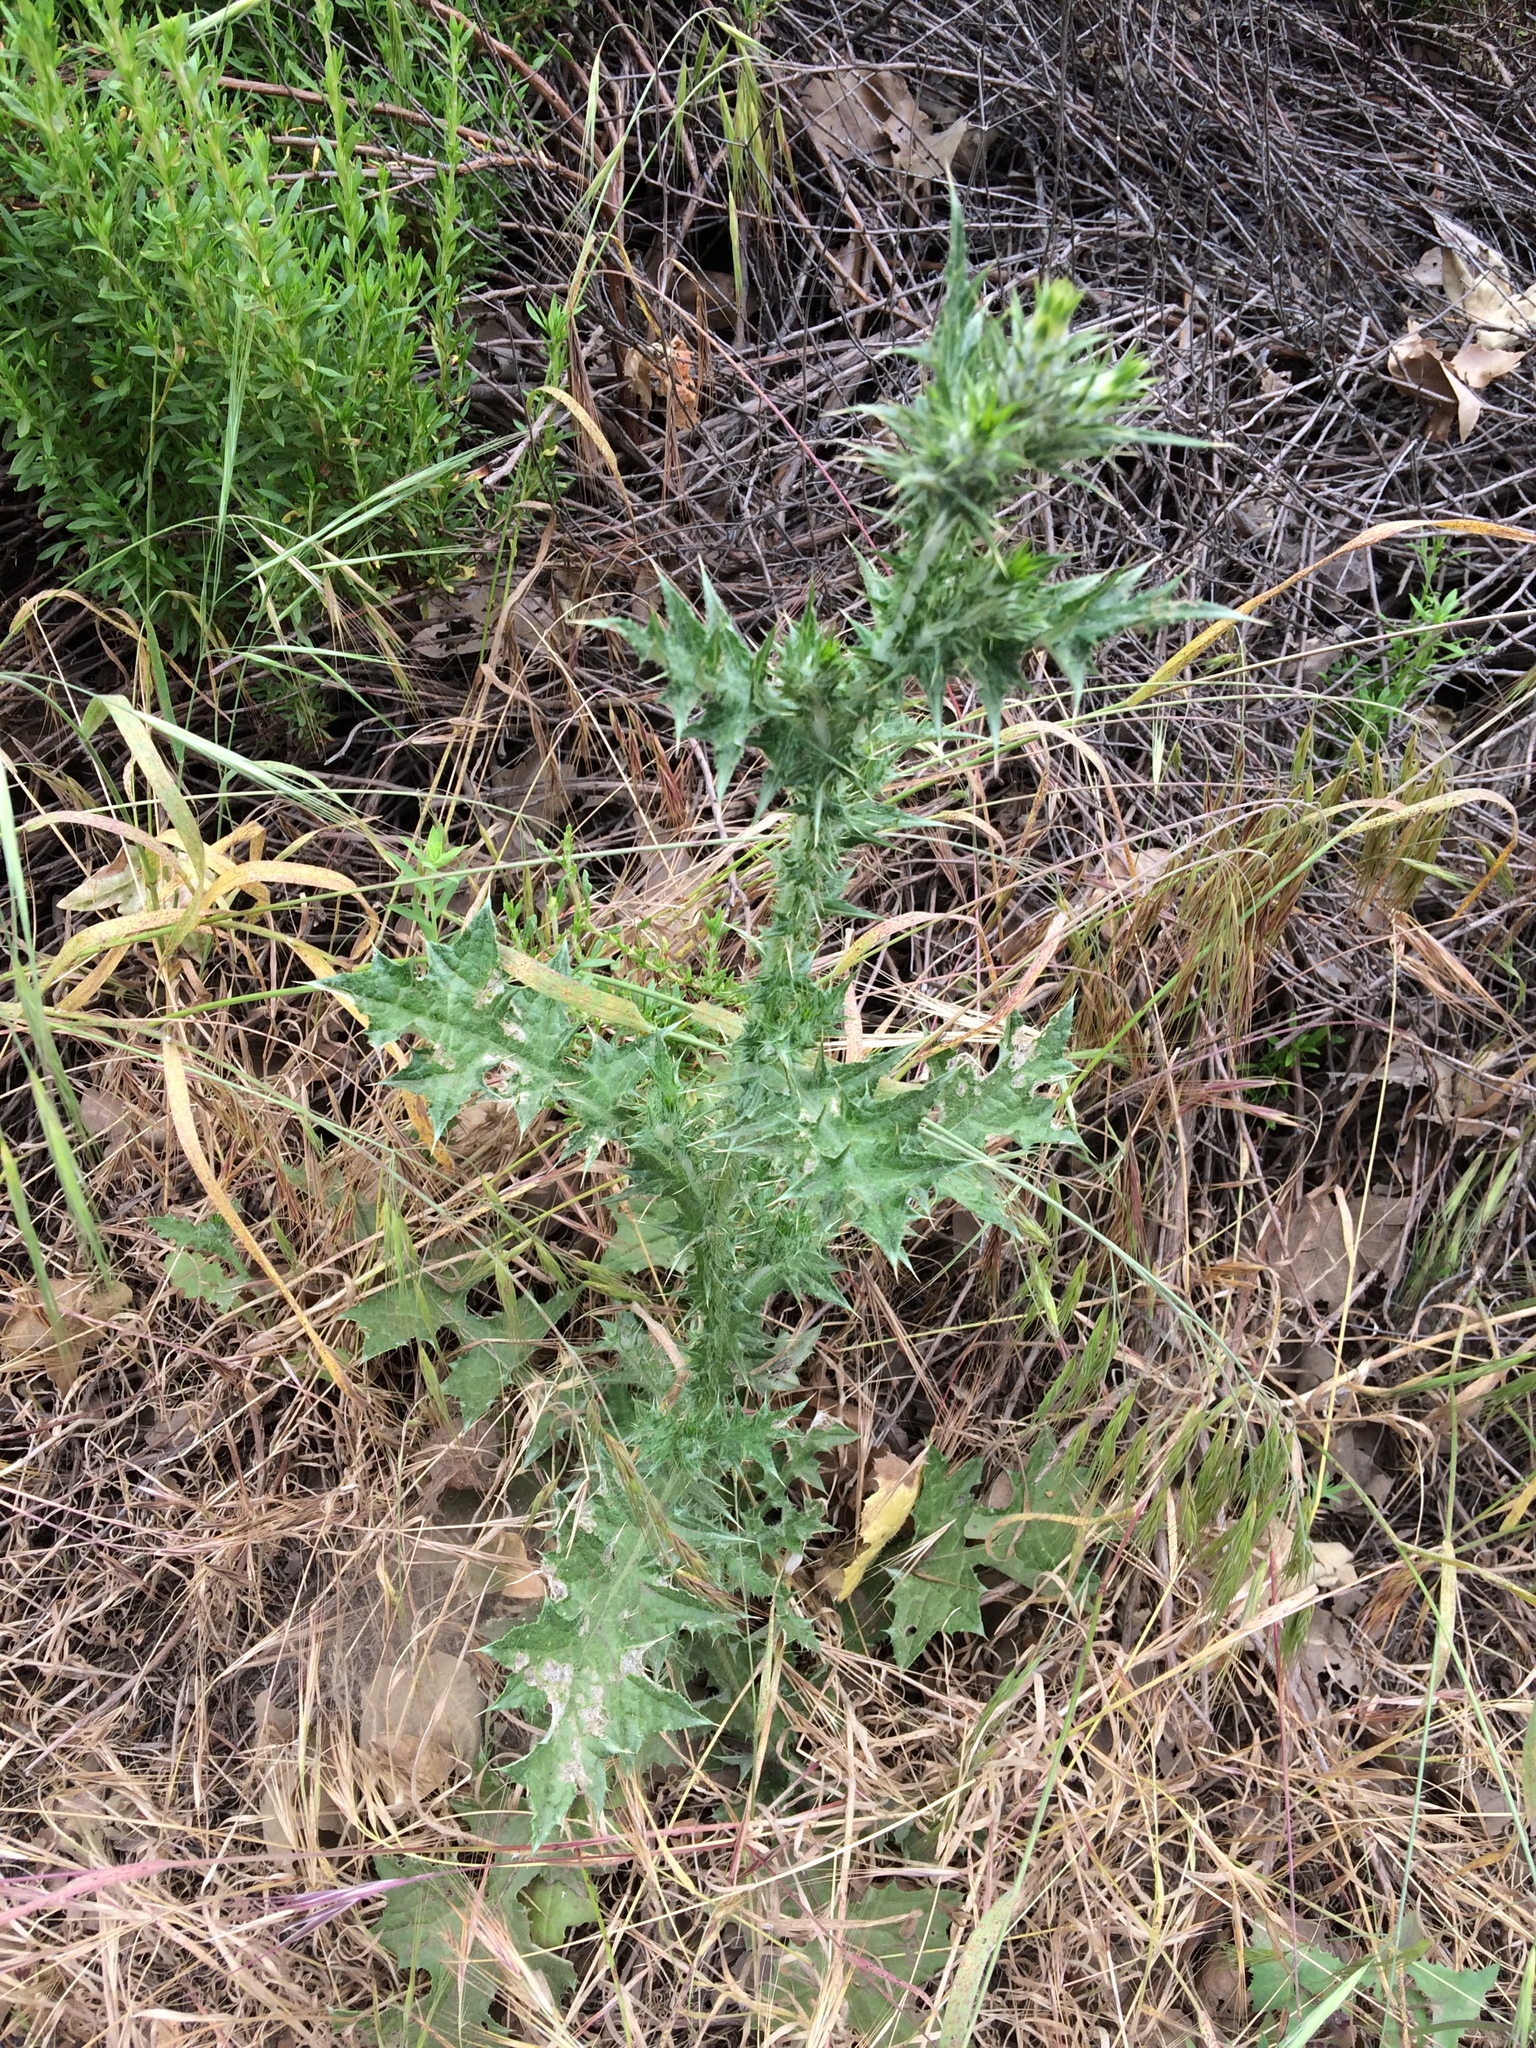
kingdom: Plantae
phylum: Tracheophyta
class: Magnoliopsida
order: Asterales
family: Asteraceae
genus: Carduus
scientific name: Carduus pycnocephalus
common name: Plymouth thistle
